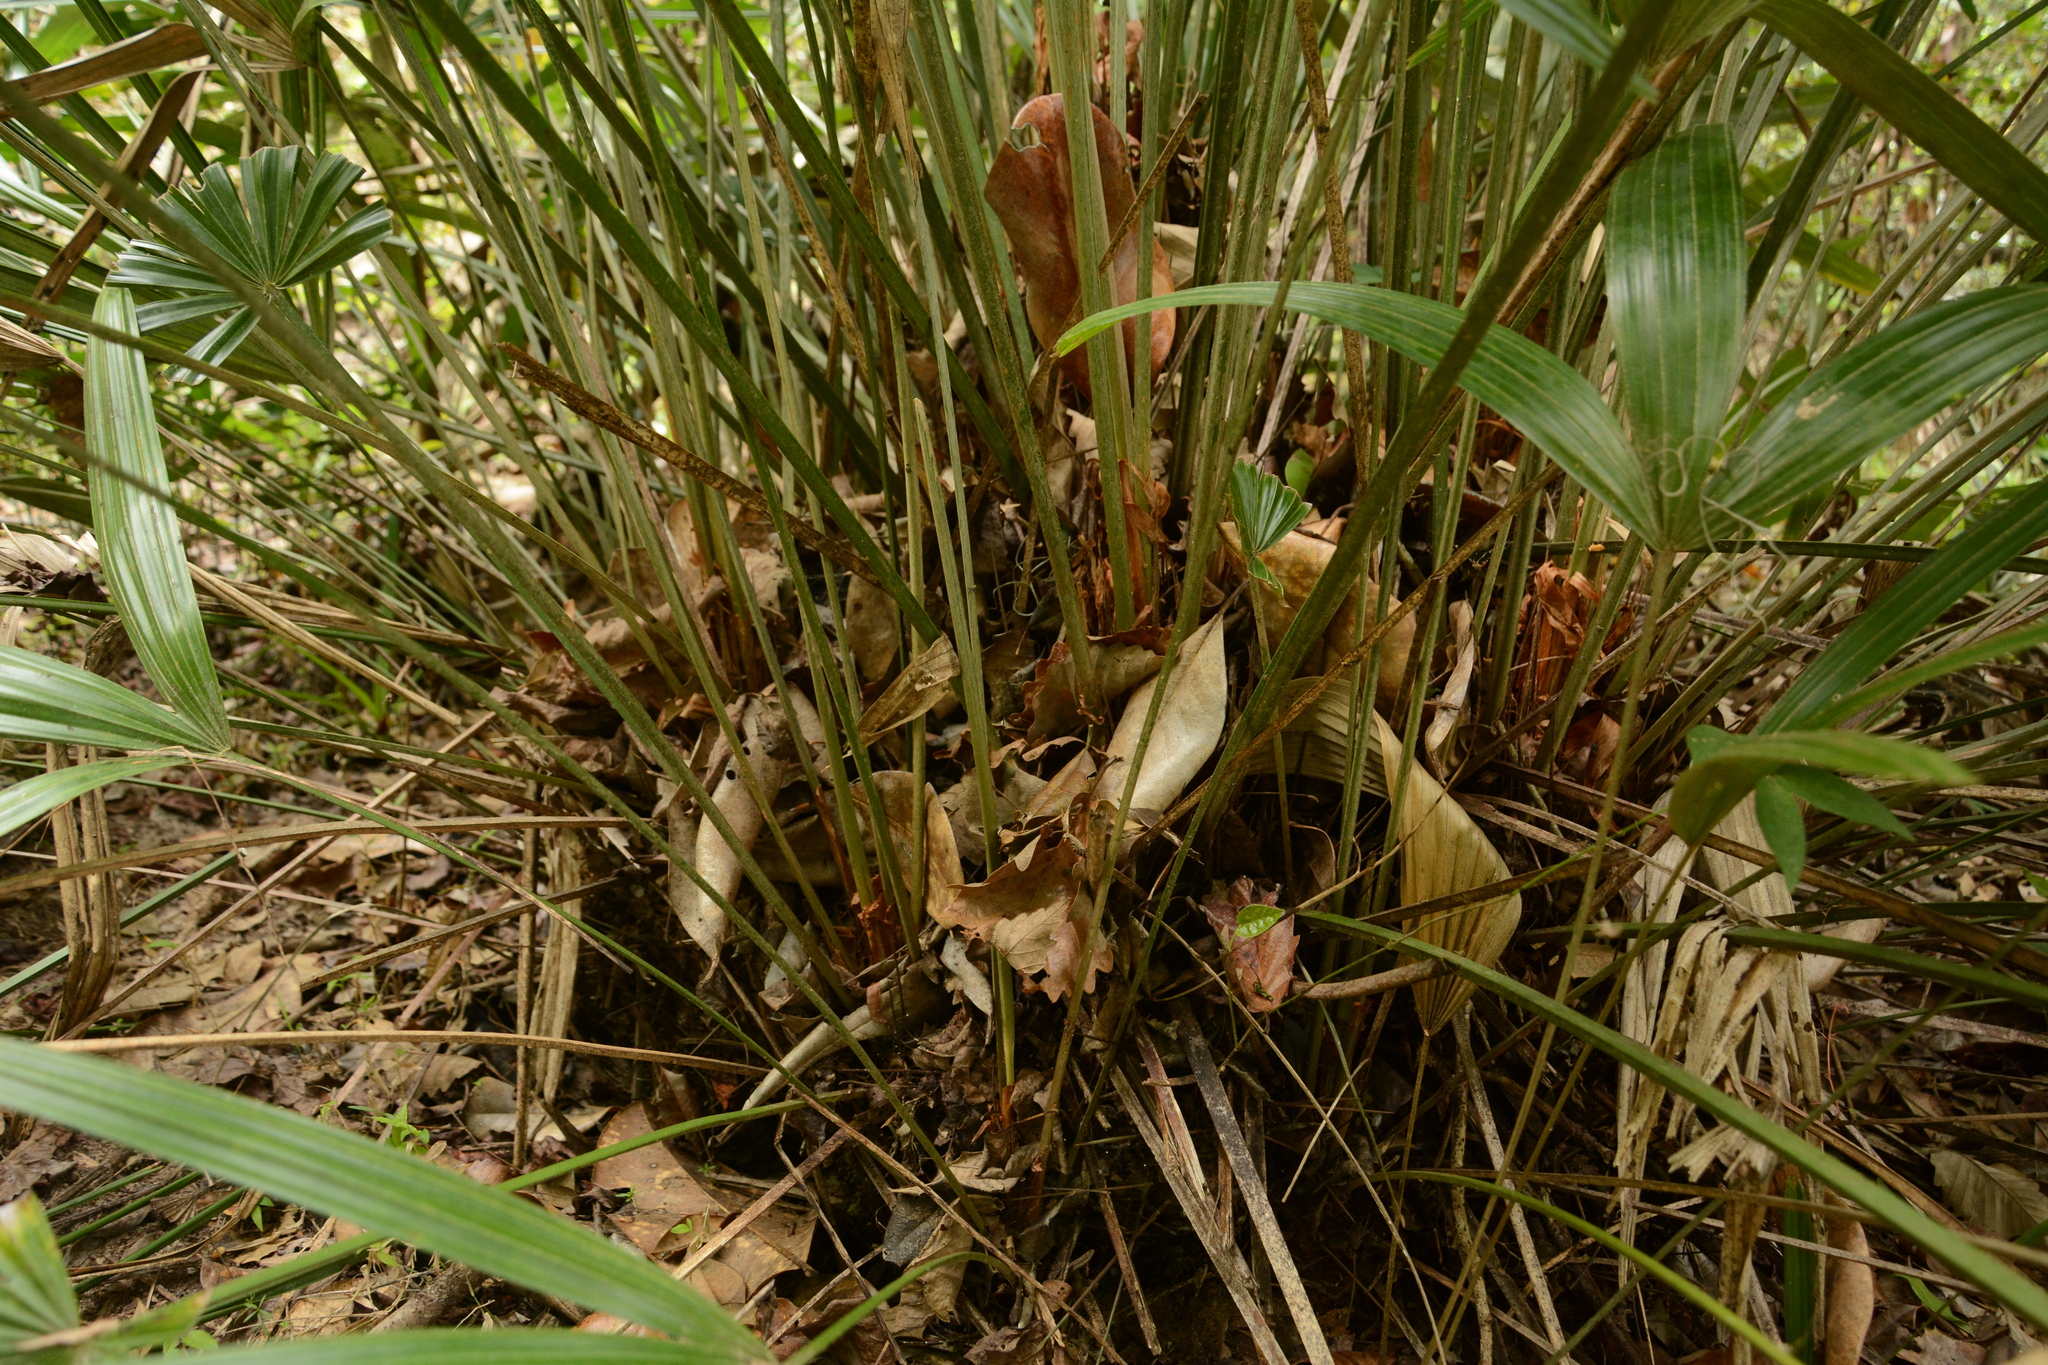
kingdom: Plantae
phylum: Tracheophyta
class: Liliopsida
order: Arecales
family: Arecaceae
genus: Rhapidophyllum
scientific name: Rhapidophyllum hystrix
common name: Porcupine palm
